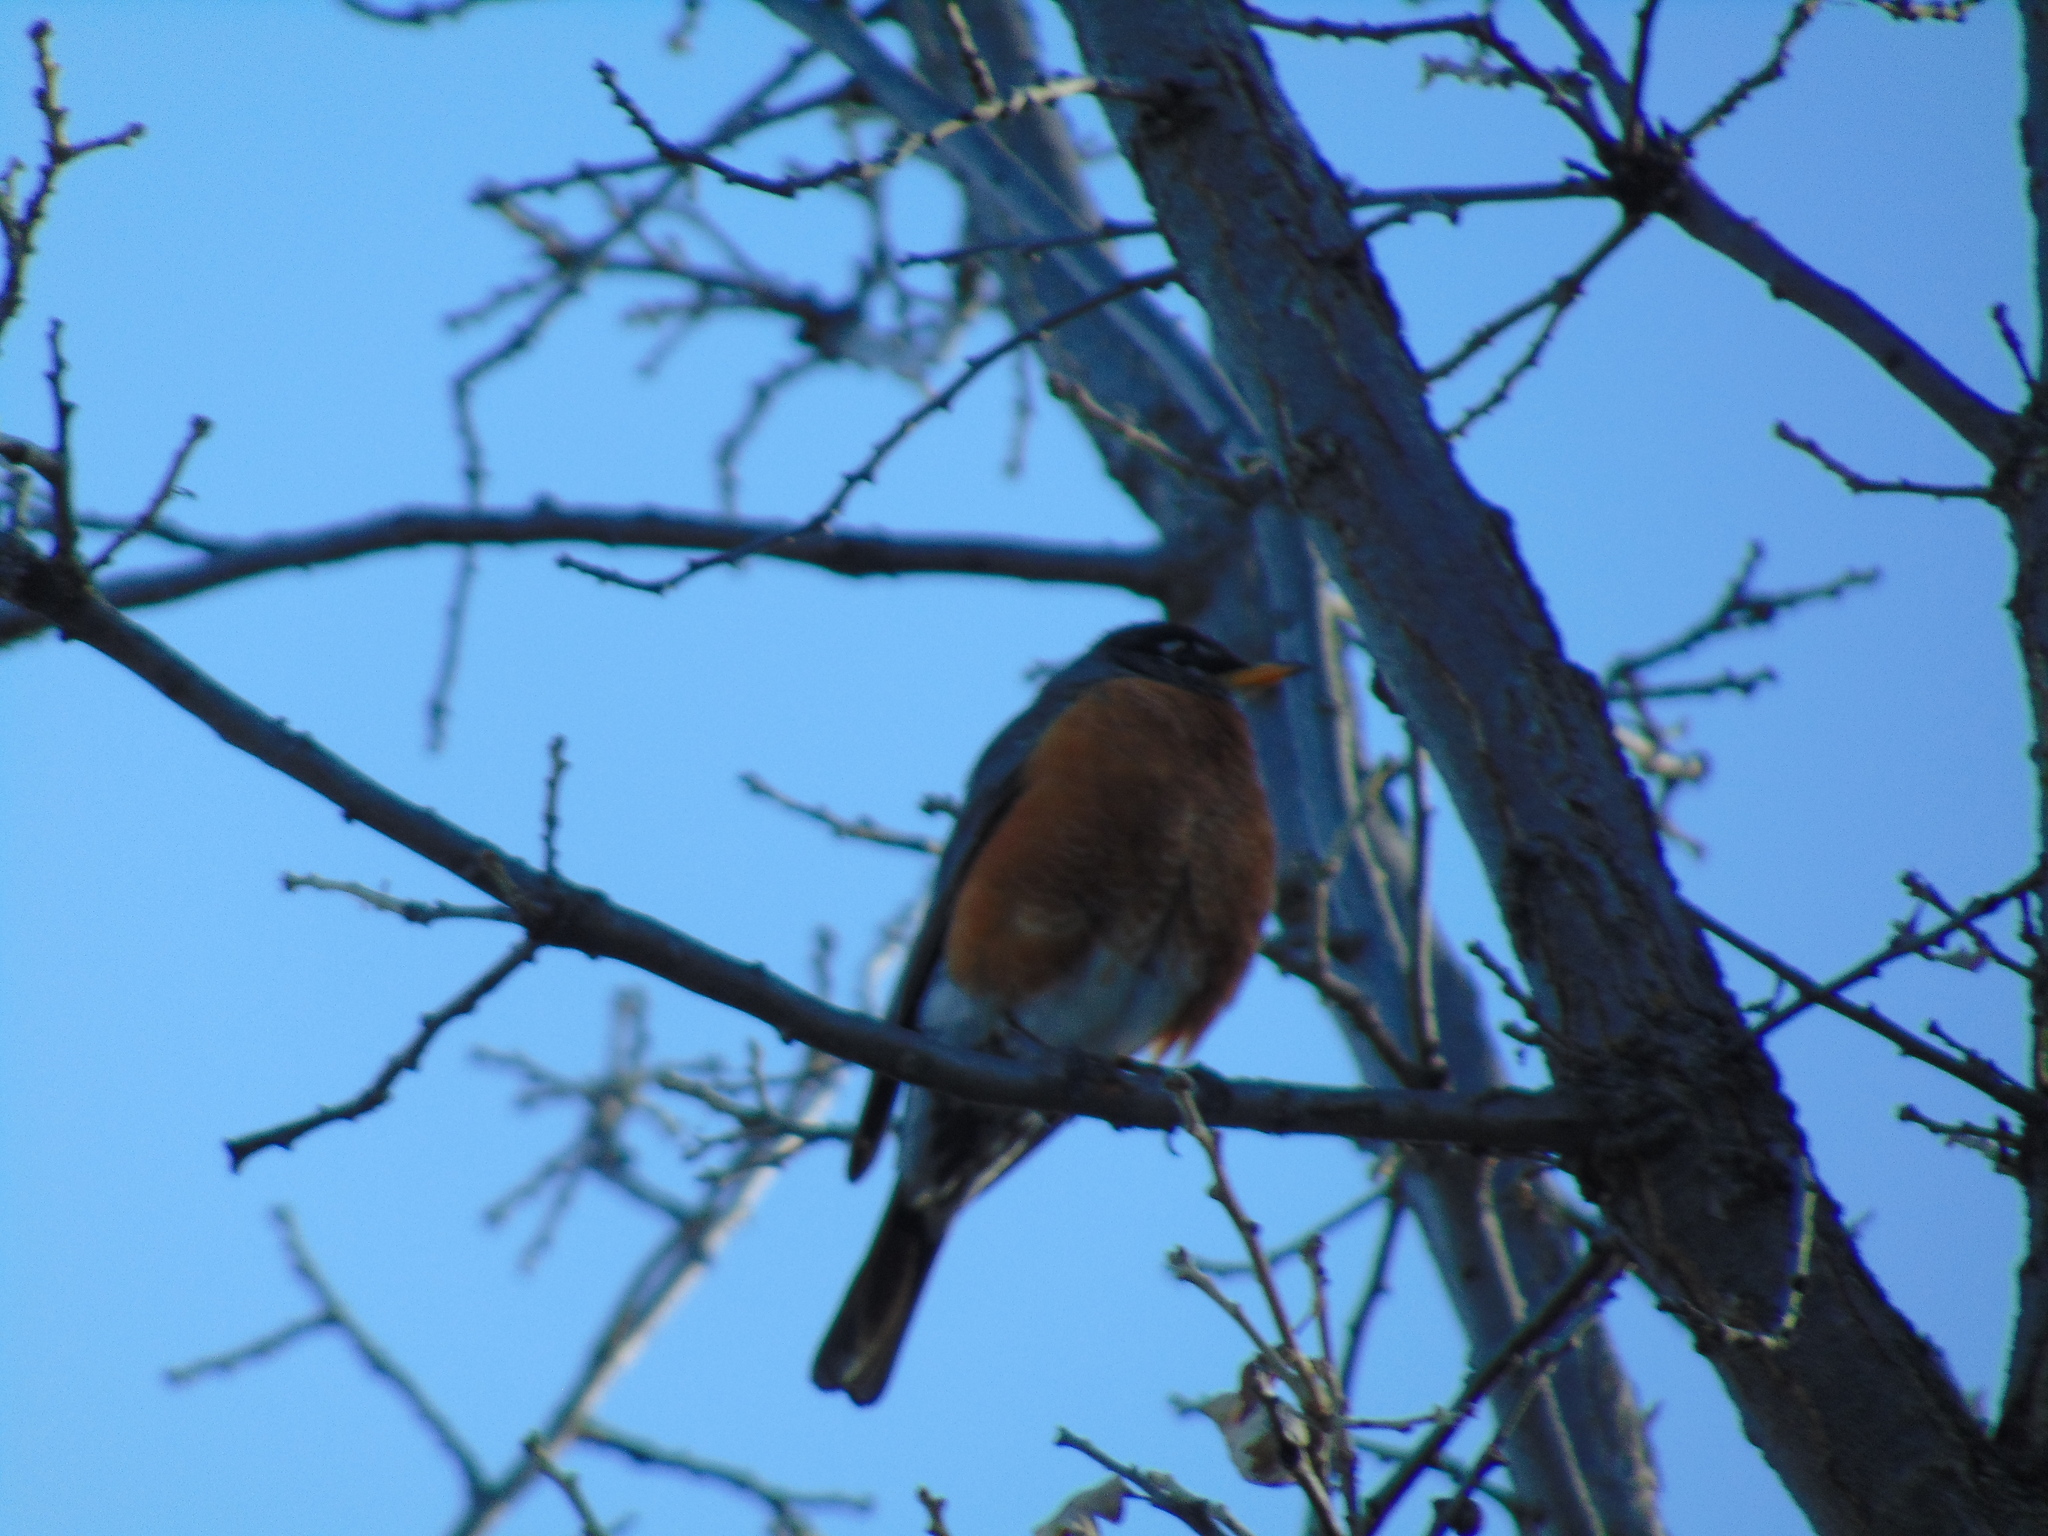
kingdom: Animalia
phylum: Chordata
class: Aves
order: Passeriformes
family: Turdidae
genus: Turdus
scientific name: Turdus migratorius
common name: American robin
